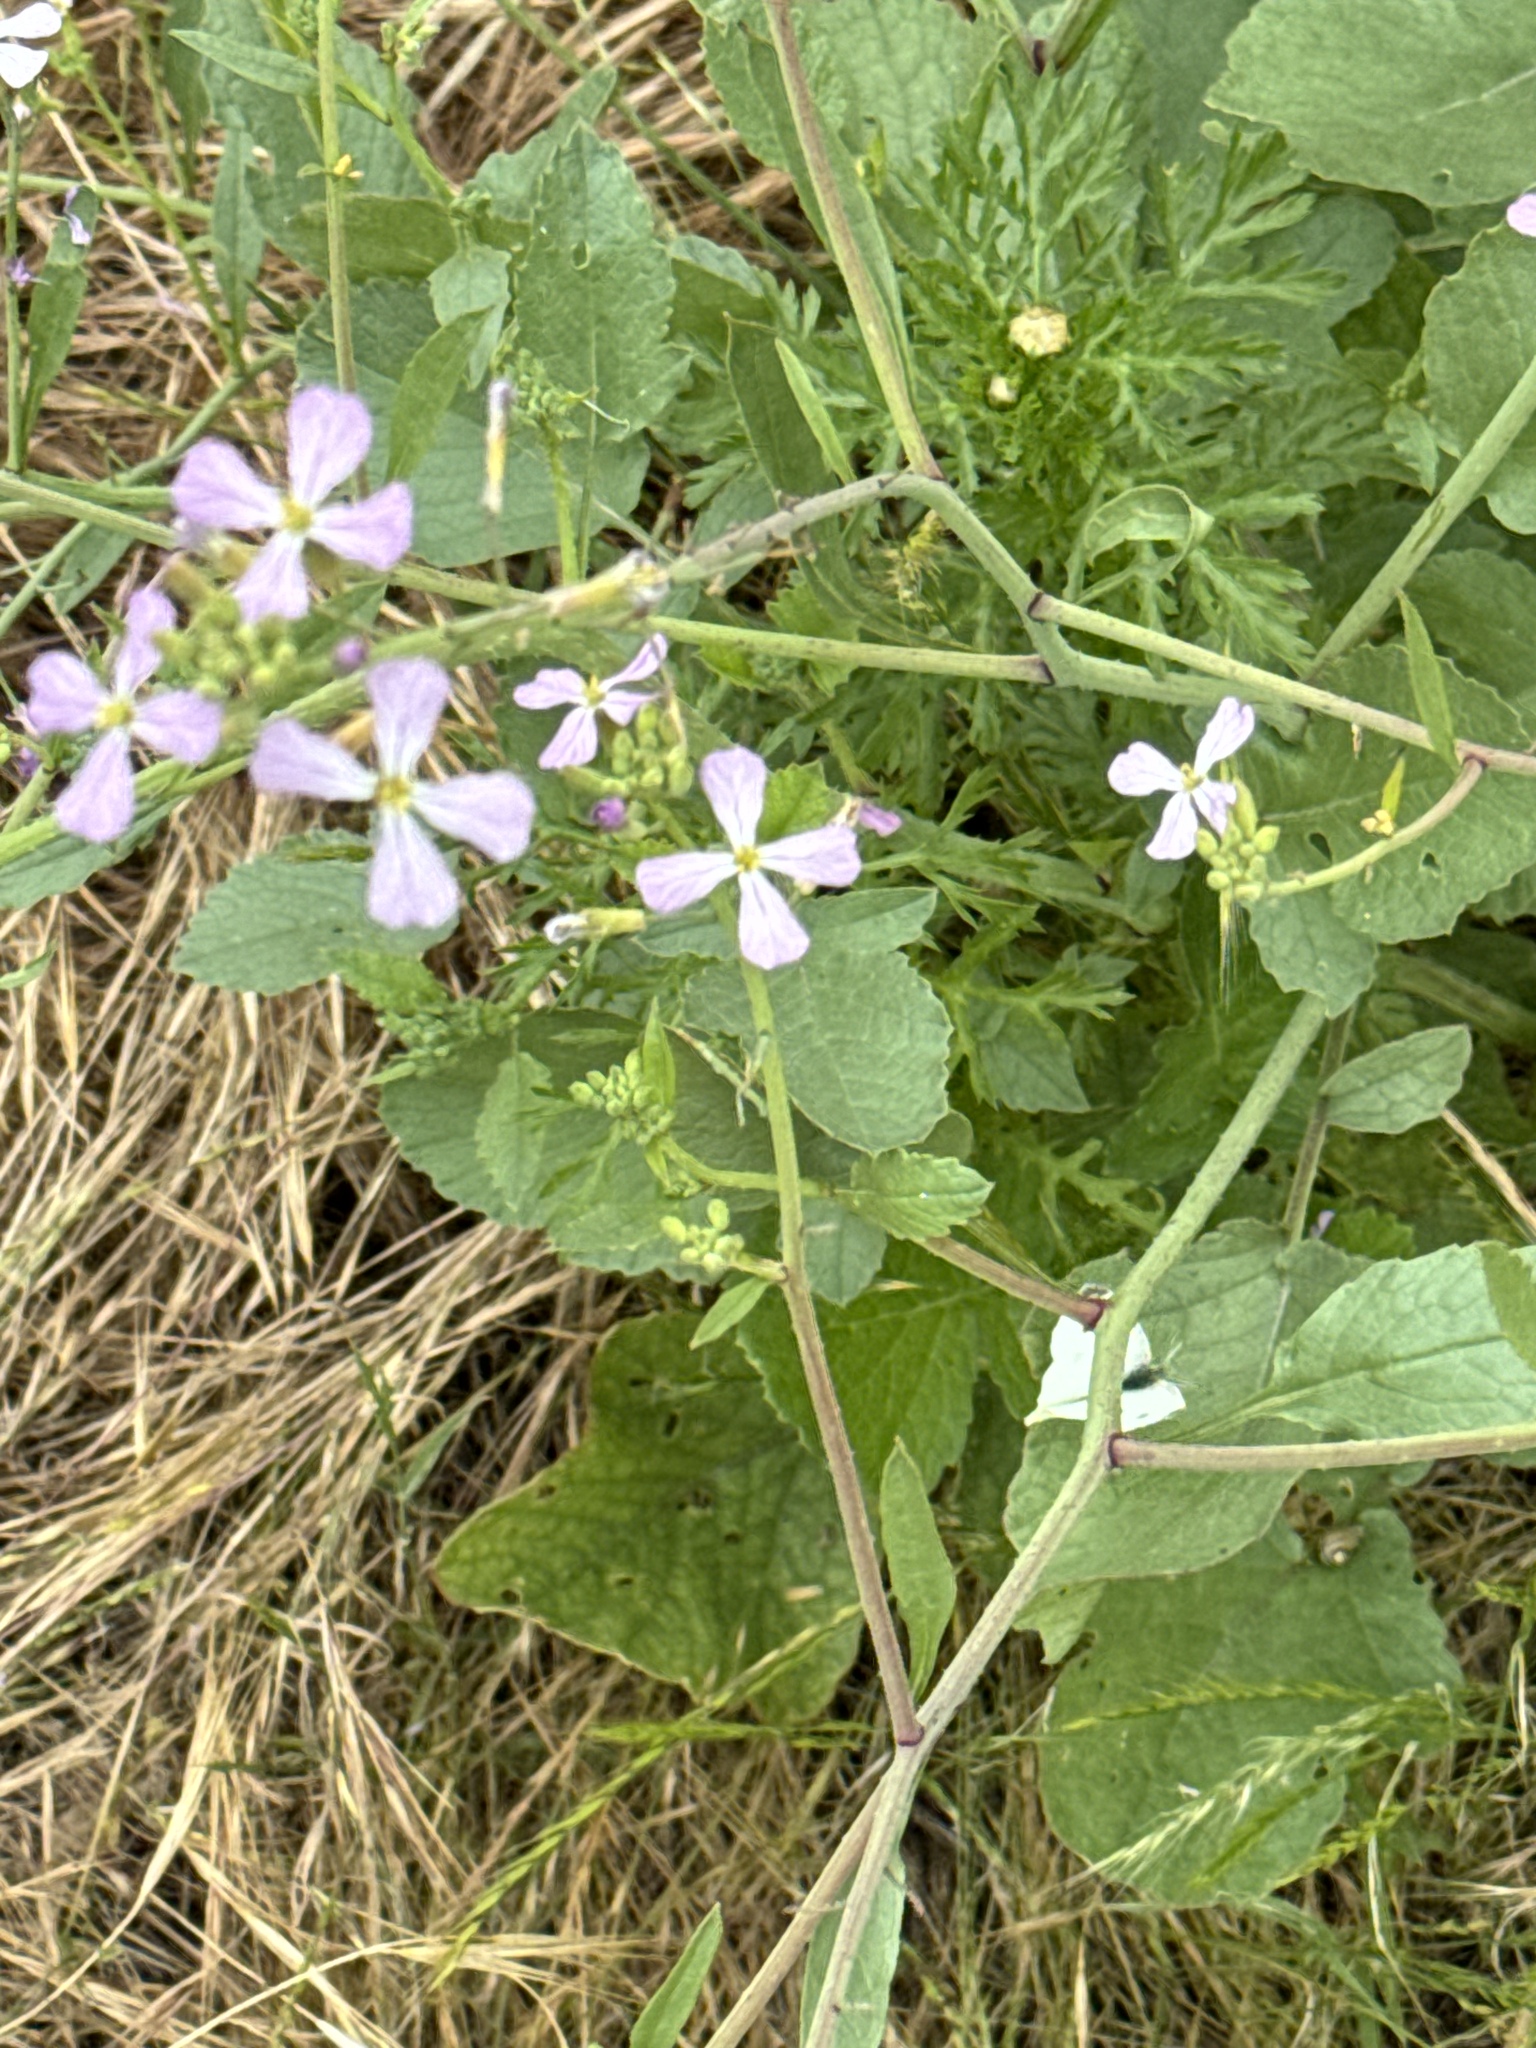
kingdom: Plantae
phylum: Tracheophyta
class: Magnoliopsida
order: Brassicales
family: Brassicaceae
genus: Raphanus
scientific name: Raphanus sativus
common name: Cultivated radish
